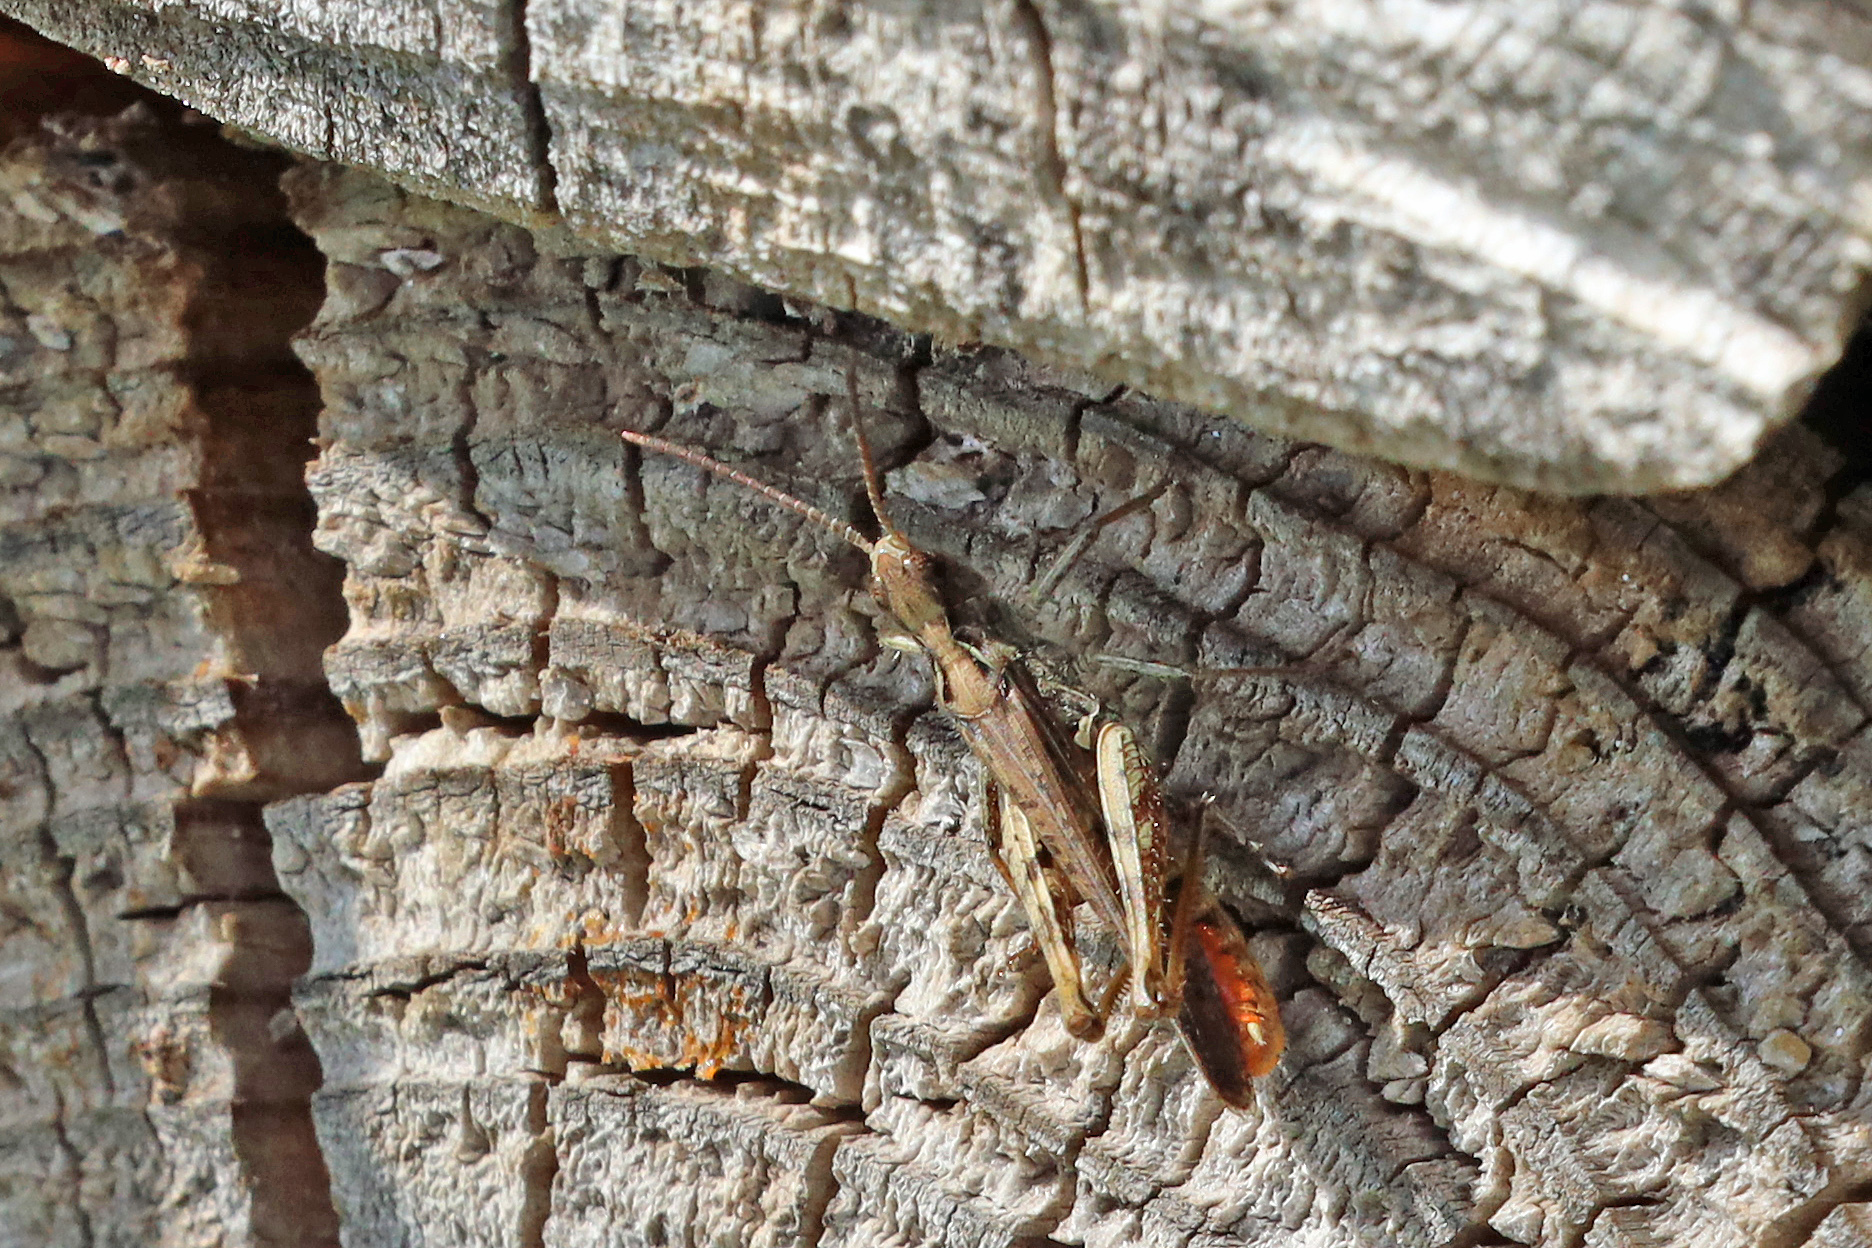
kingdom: Animalia
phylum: Arthropoda
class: Insecta
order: Orthoptera
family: Acrididae
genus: Chorthippus
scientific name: Chorthippus brunneus
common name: Field grasshopper
